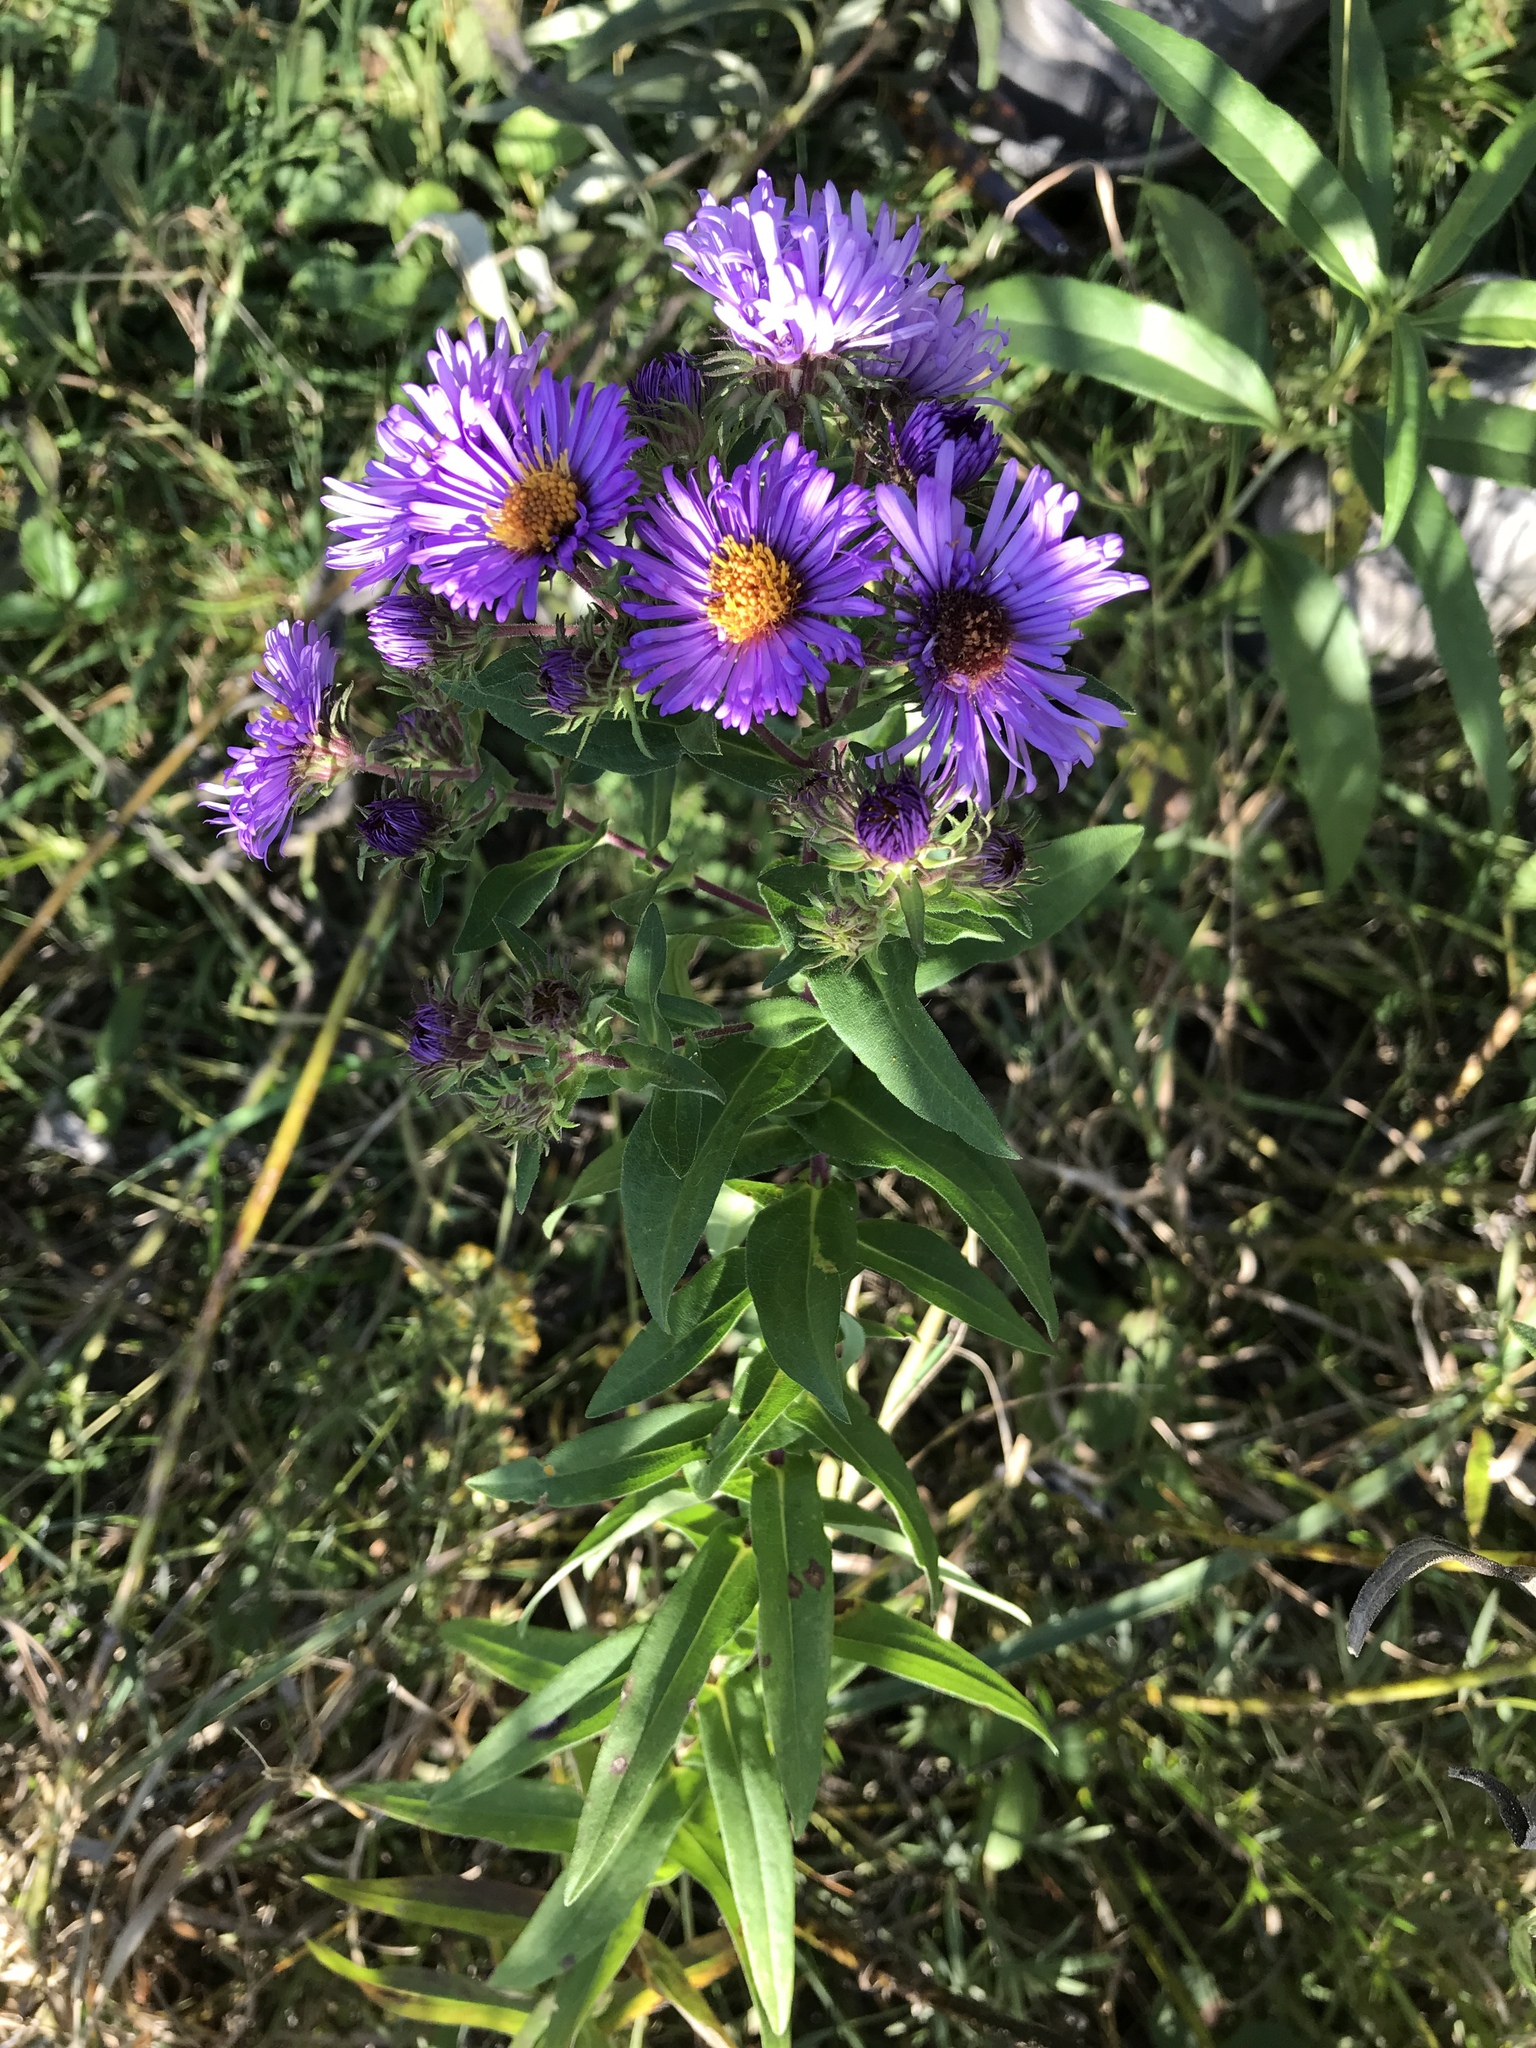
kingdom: Plantae
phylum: Tracheophyta
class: Magnoliopsida
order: Asterales
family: Asteraceae
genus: Symphyotrichum
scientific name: Symphyotrichum novae-angliae
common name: Michaelmas daisy
